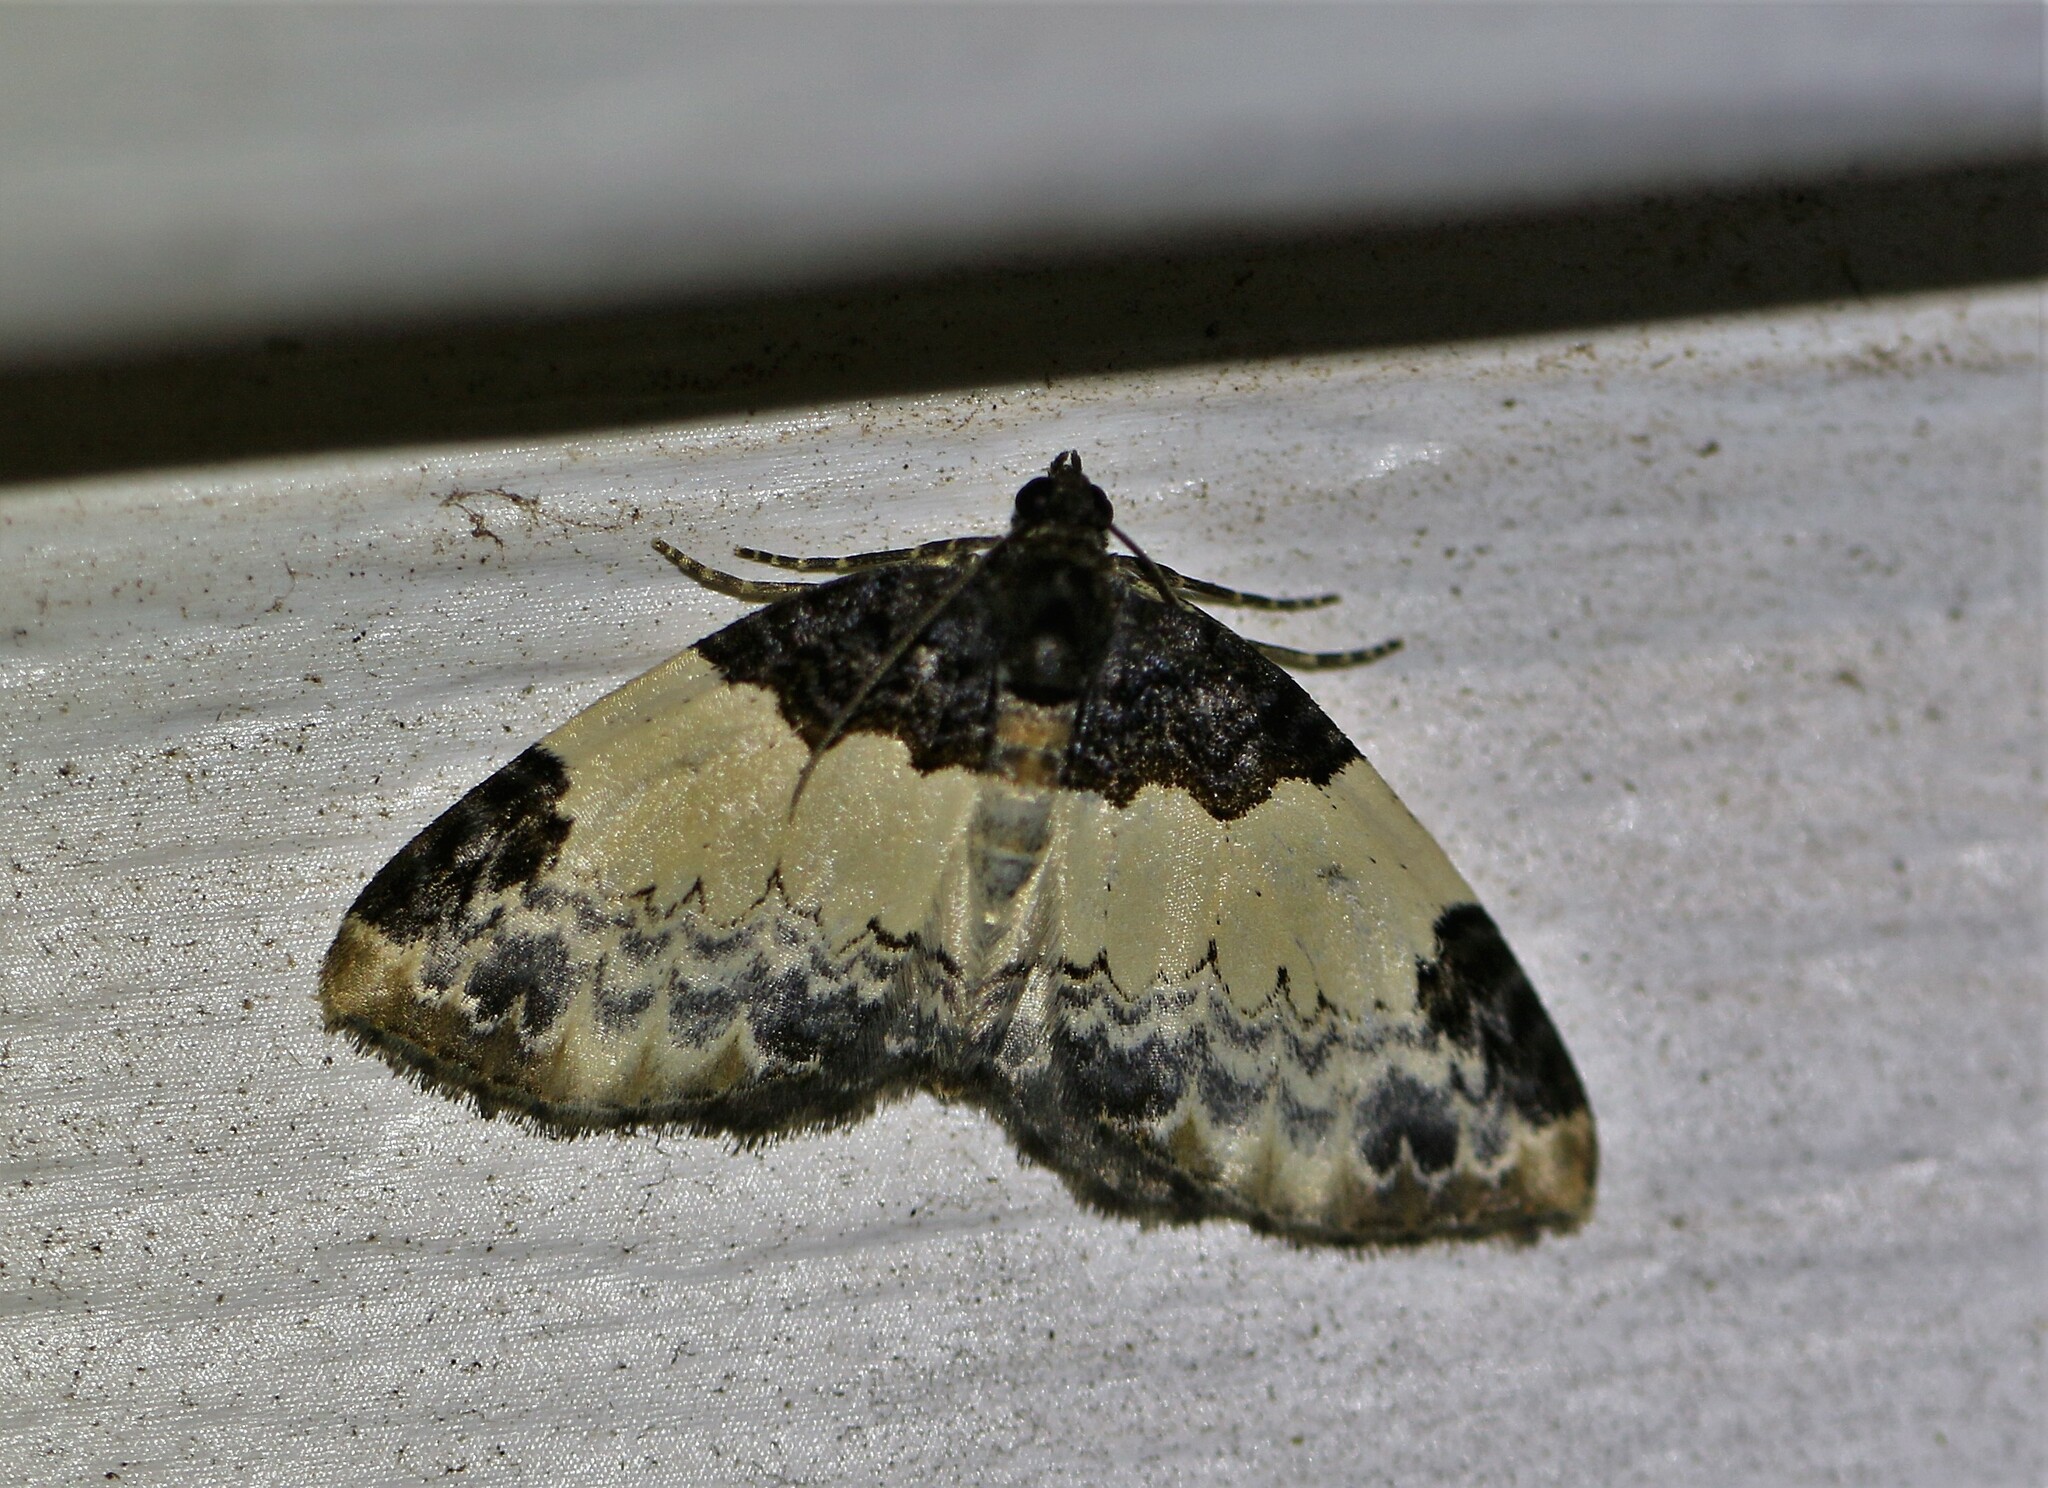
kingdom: Animalia
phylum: Arthropoda
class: Insecta
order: Lepidoptera
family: Geometridae
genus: Mesoleuca
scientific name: Mesoleuca ruficillata
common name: White-ribboned carpet moth
